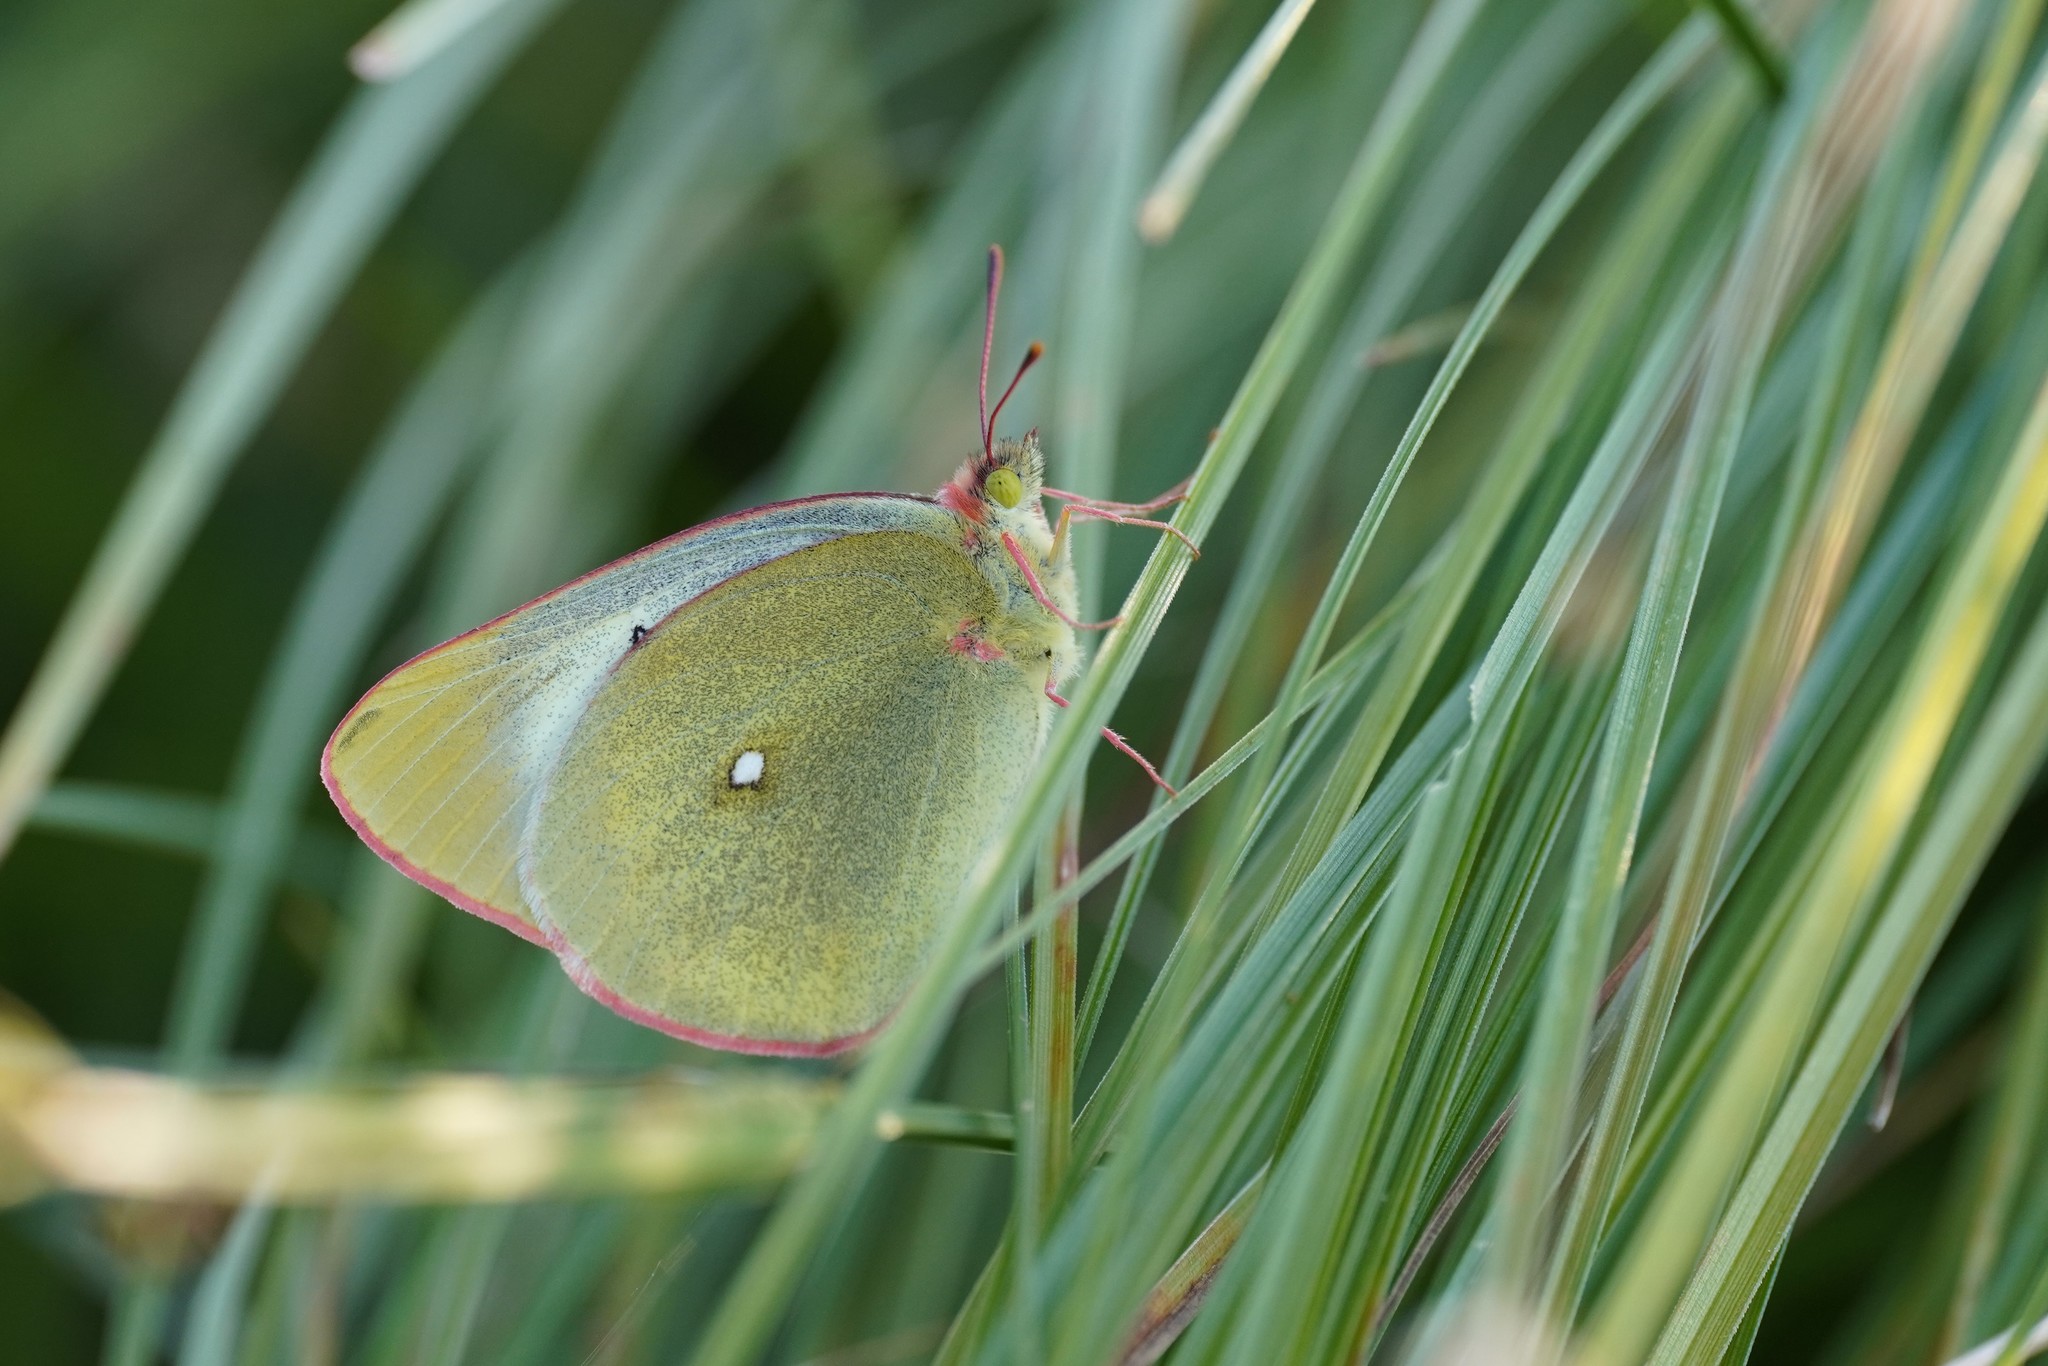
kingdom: Animalia
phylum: Arthropoda
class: Insecta
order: Lepidoptera
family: Pieridae
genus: Colias
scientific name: Colias palaeno
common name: Moorland clouded yellow
